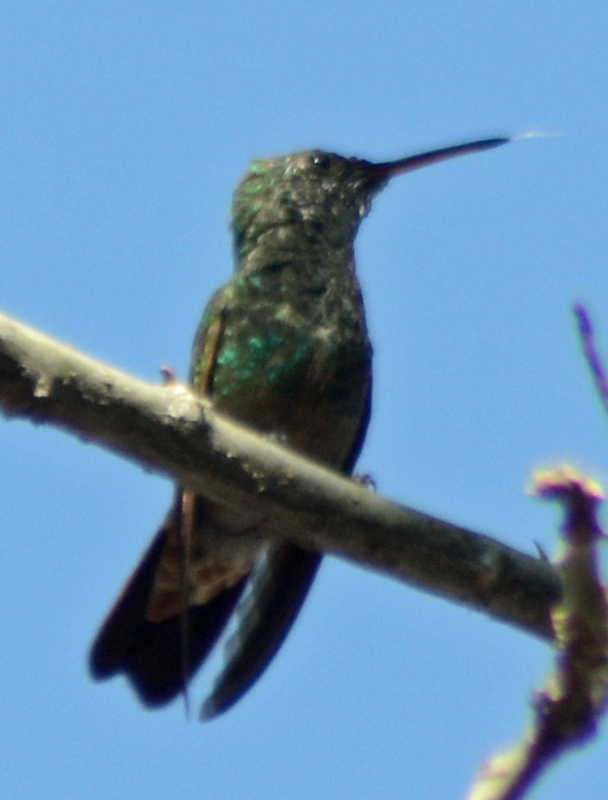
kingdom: Animalia
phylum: Chordata
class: Aves
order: Apodiformes
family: Trochilidae
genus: Saucerottia
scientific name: Saucerottia beryllina
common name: Berylline hummingbird
